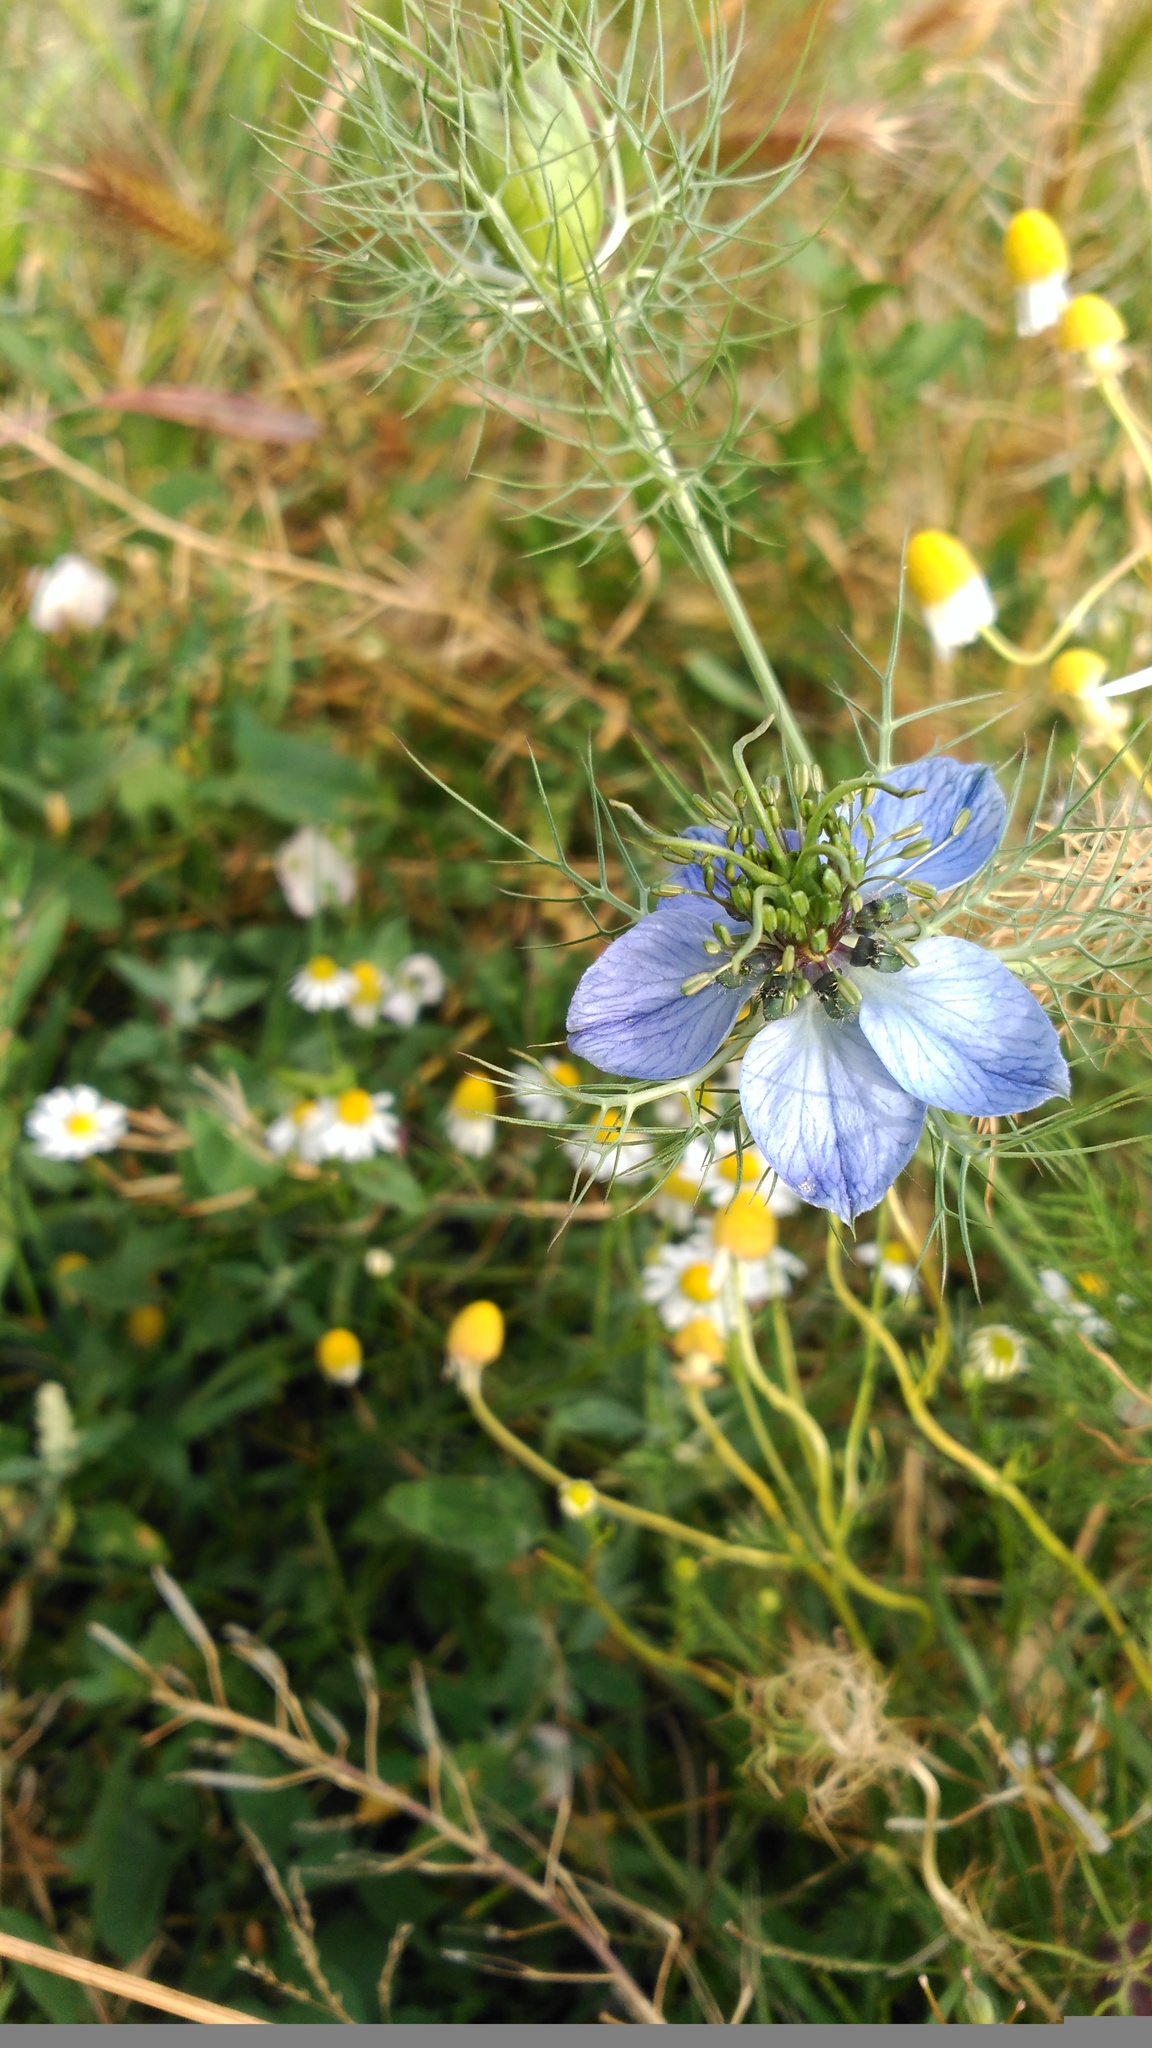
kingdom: Plantae
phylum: Tracheophyta
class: Magnoliopsida
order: Ranunculales
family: Ranunculaceae
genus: Nigella
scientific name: Nigella damascena
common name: Love-in-a-mist
